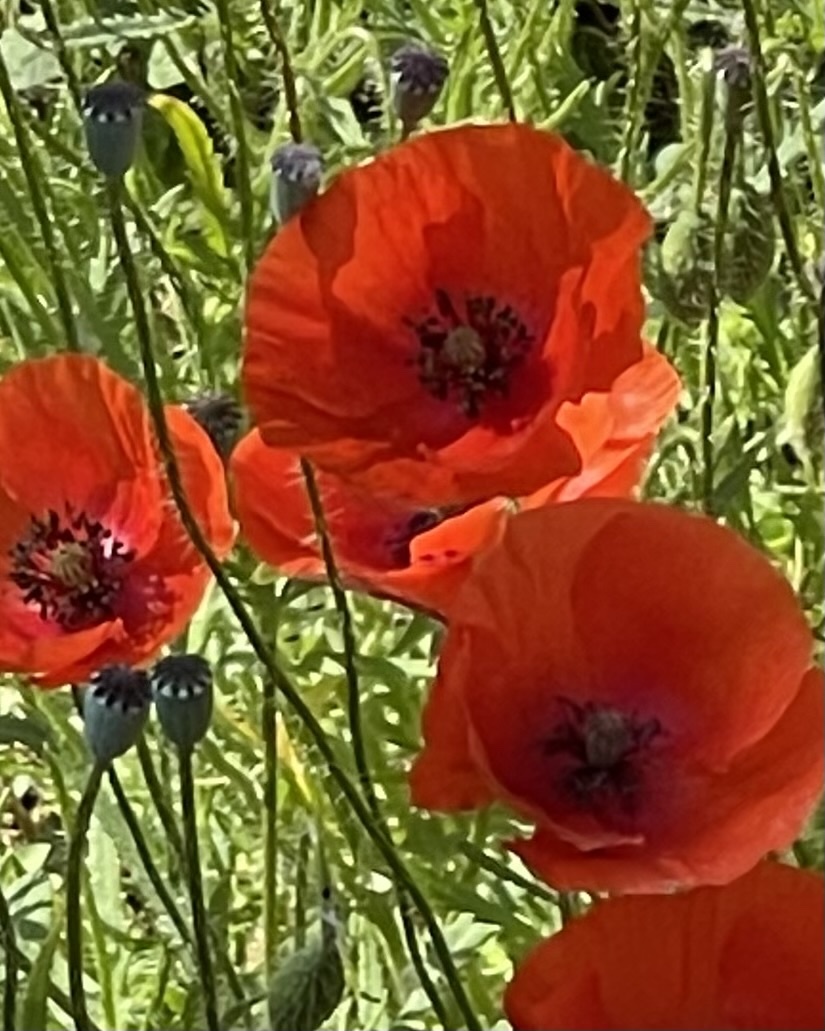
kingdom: Plantae
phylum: Tracheophyta
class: Magnoliopsida
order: Ranunculales
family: Papaveraceae
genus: Papaver
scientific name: Papaver rhoeas
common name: Corn poppy
